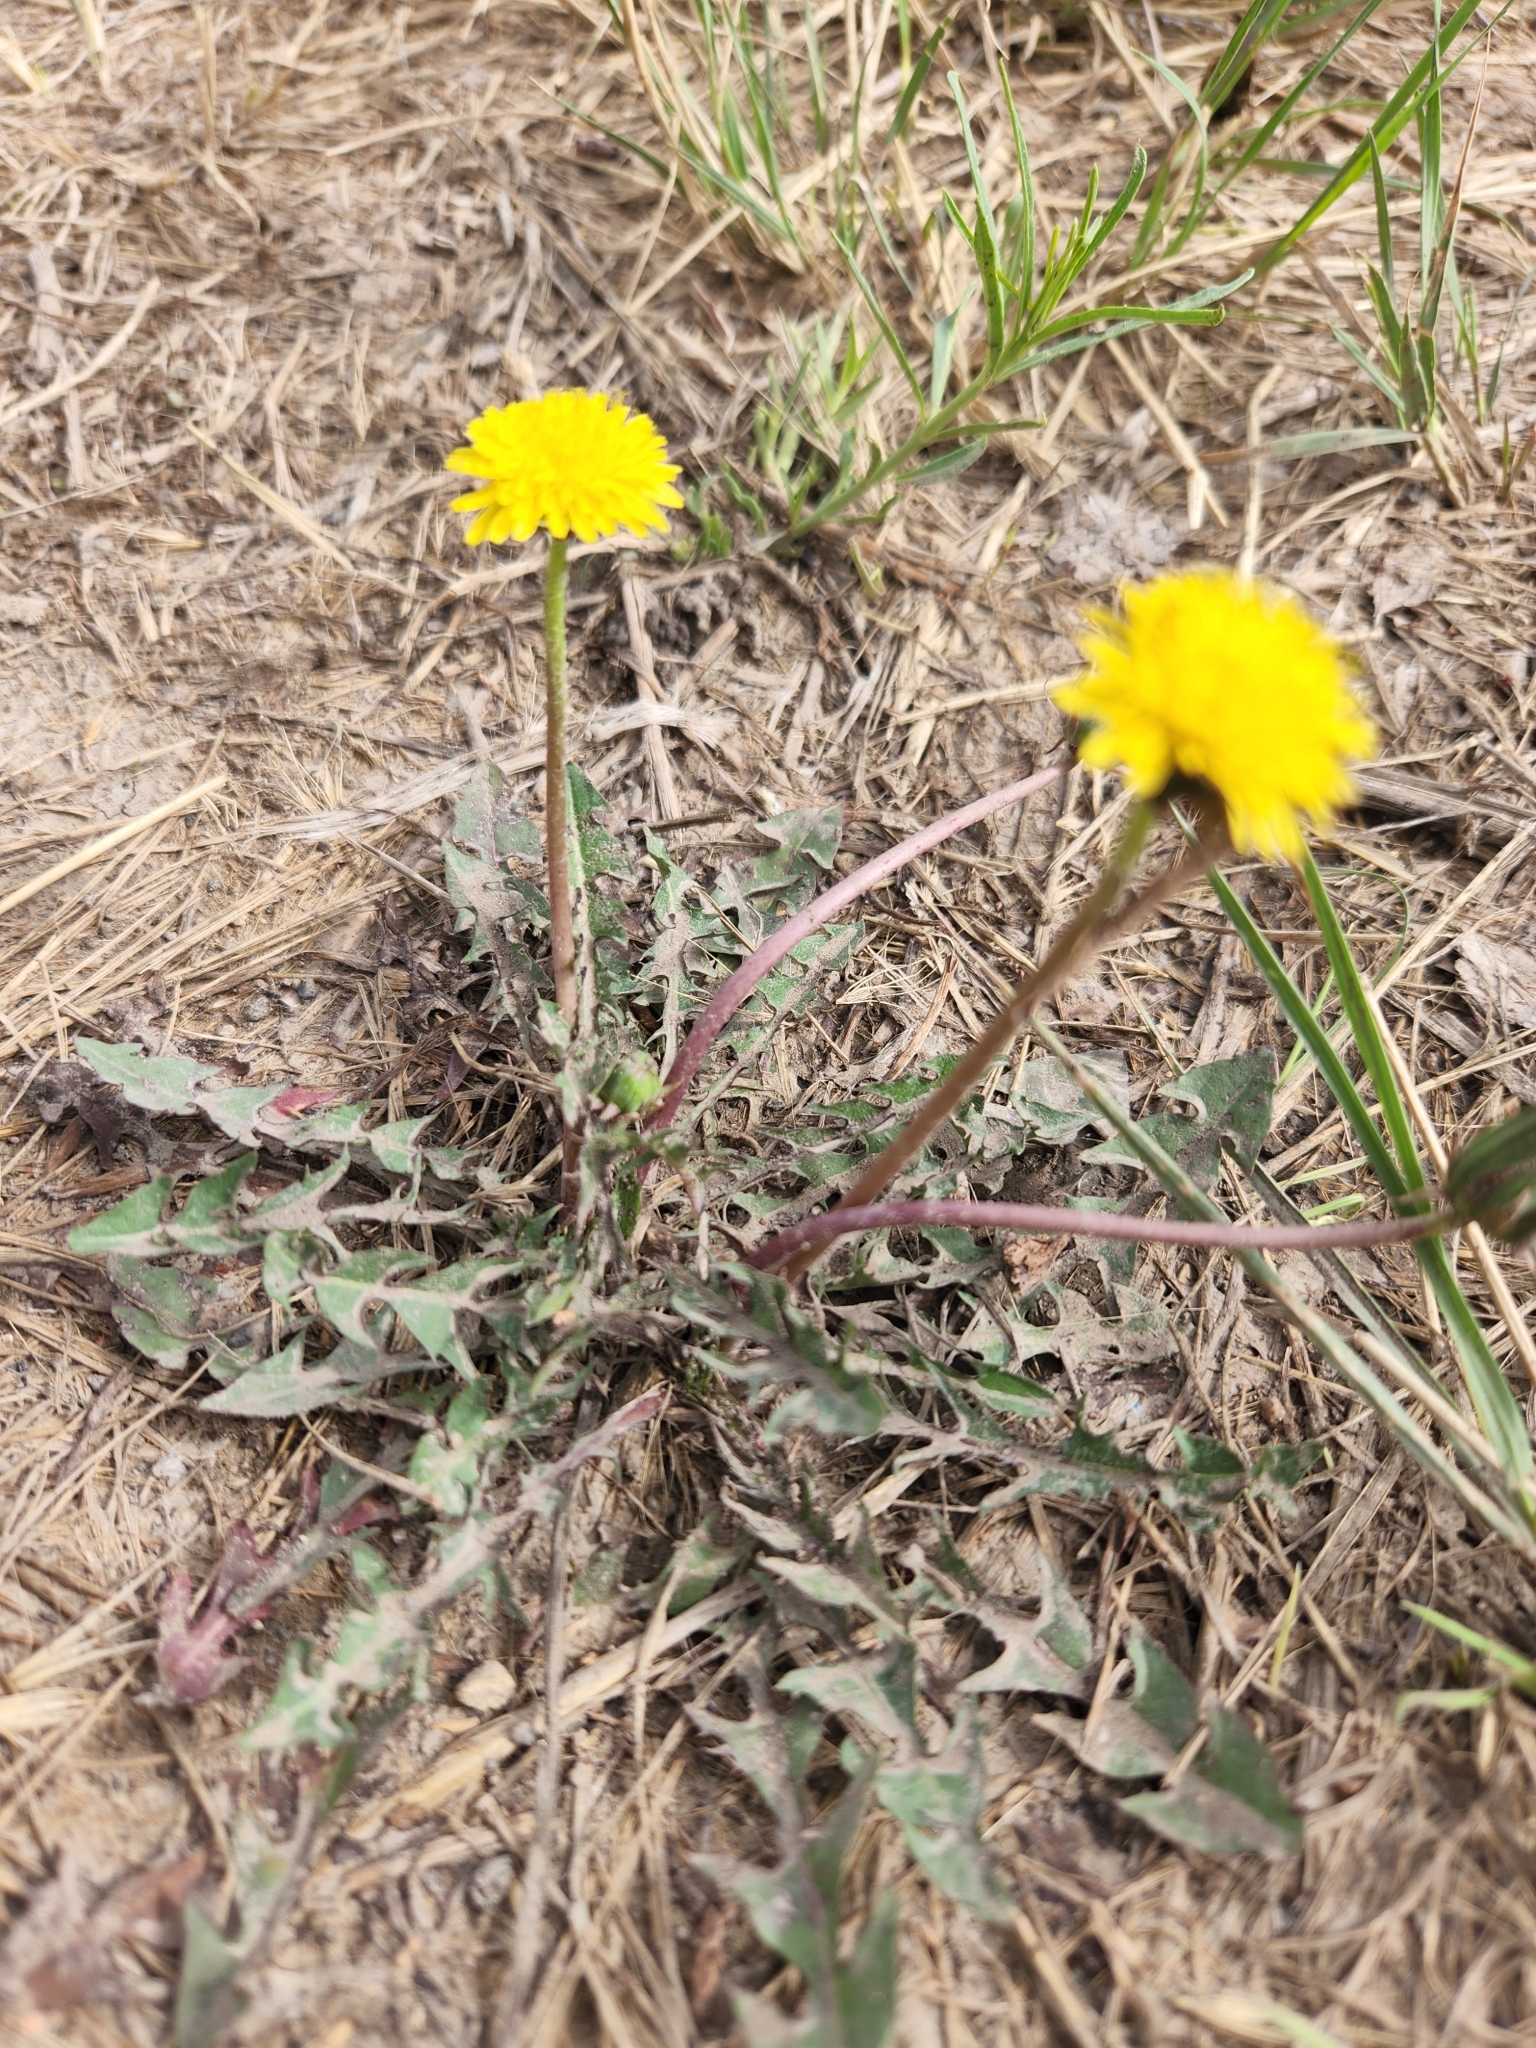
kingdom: Plantae
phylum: Tracheophyta
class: Magnoliopsida
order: Asterales
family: Asteraceae
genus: Taraxacum
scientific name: Taraxacum officinale
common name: Common dandelion
